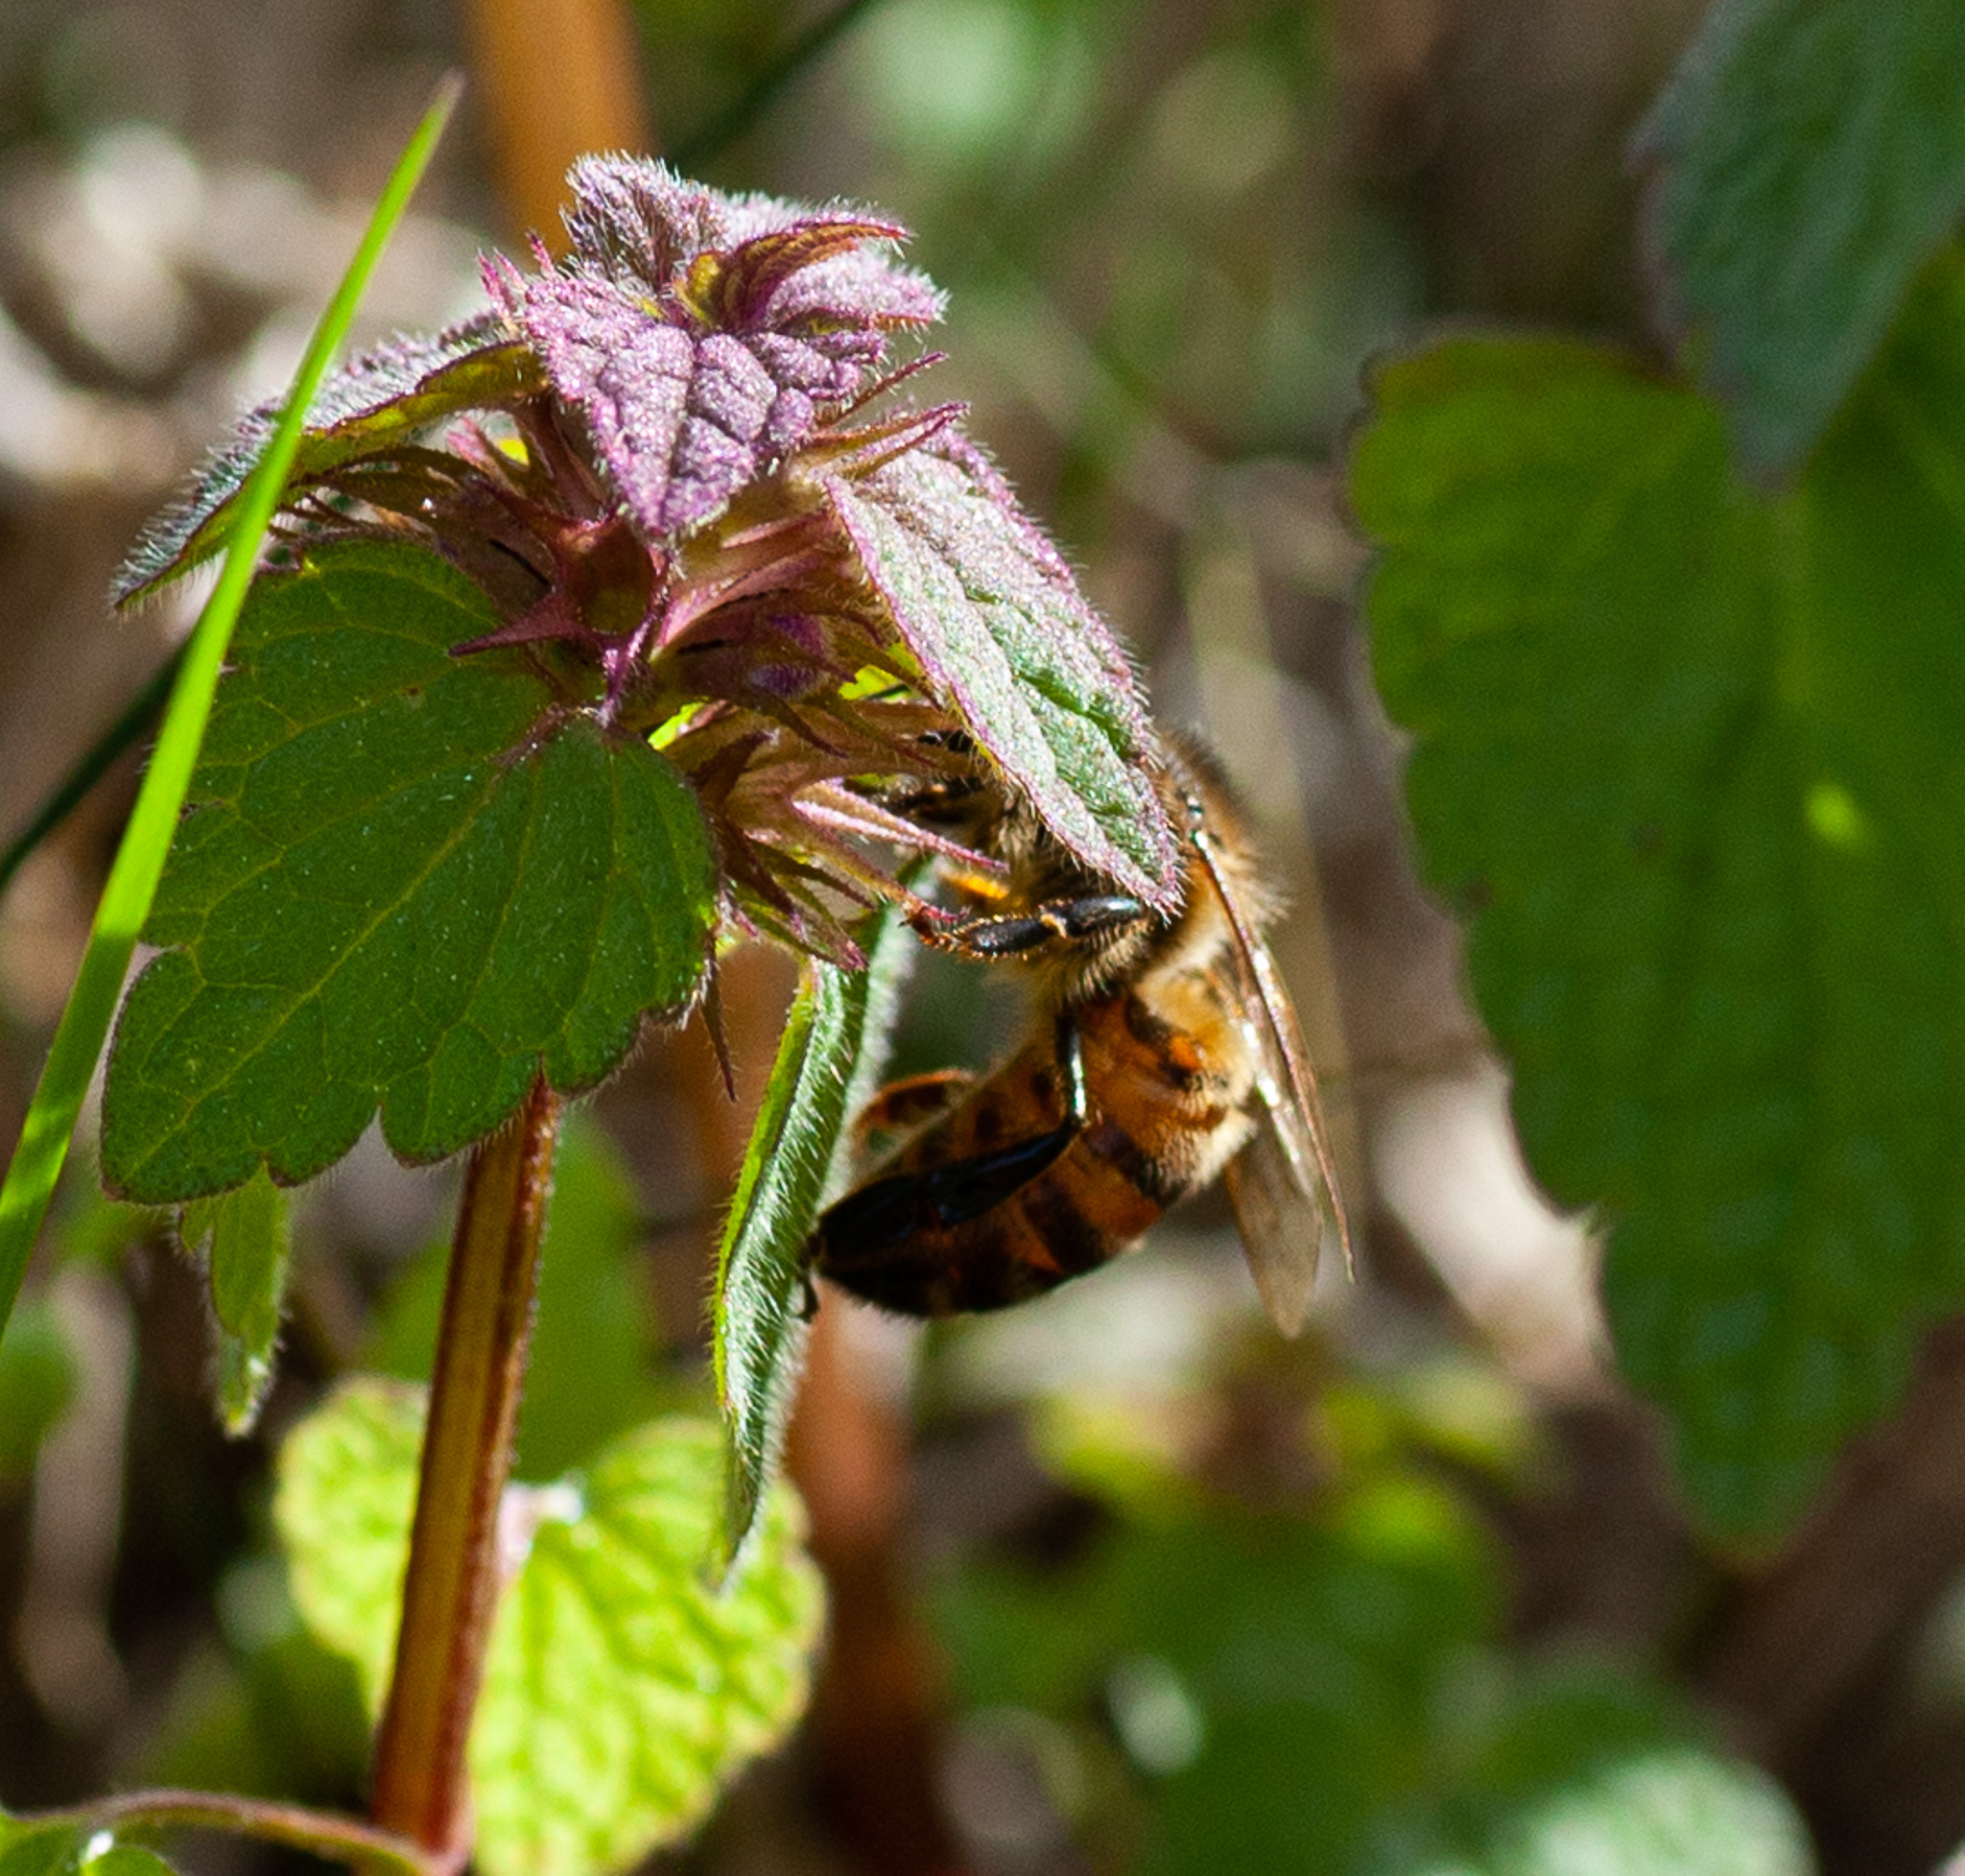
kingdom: Animalia
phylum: Arthropoda
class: Insecta
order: Hymenoptera
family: Apidae
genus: Apis
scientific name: Apis mellifera
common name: Honey bee
